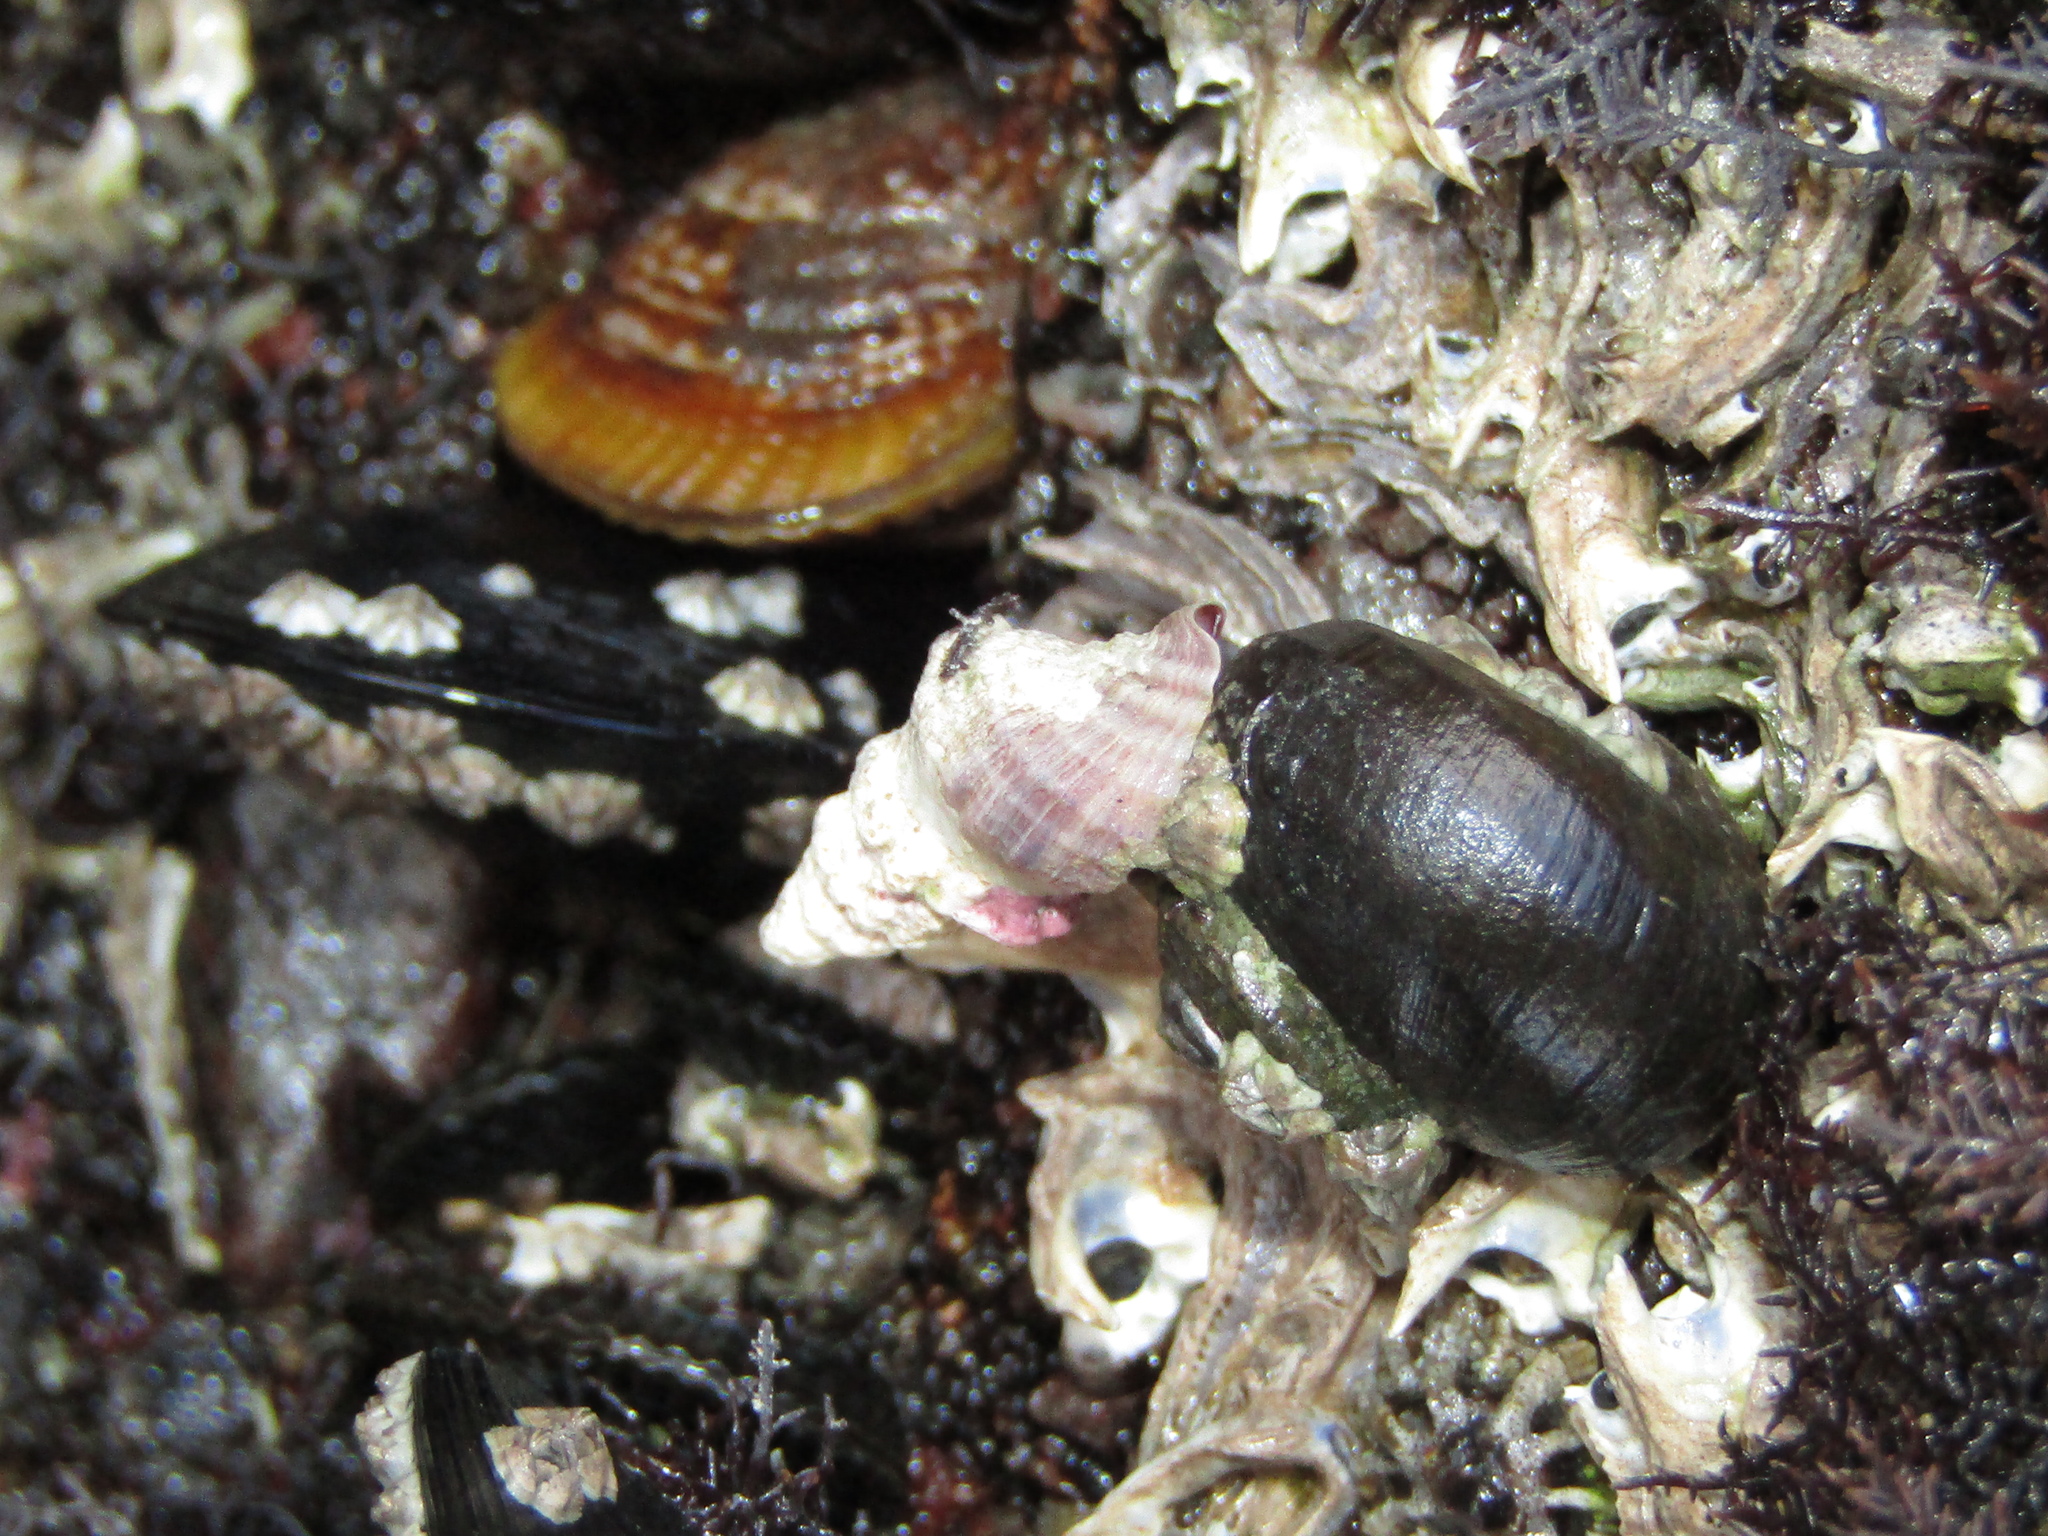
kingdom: Animalia
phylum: Mollusca
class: Gastropoda
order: Neogastropoda
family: Muricidae
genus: Lamellitrophon
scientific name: Lamellitrophon traversi
